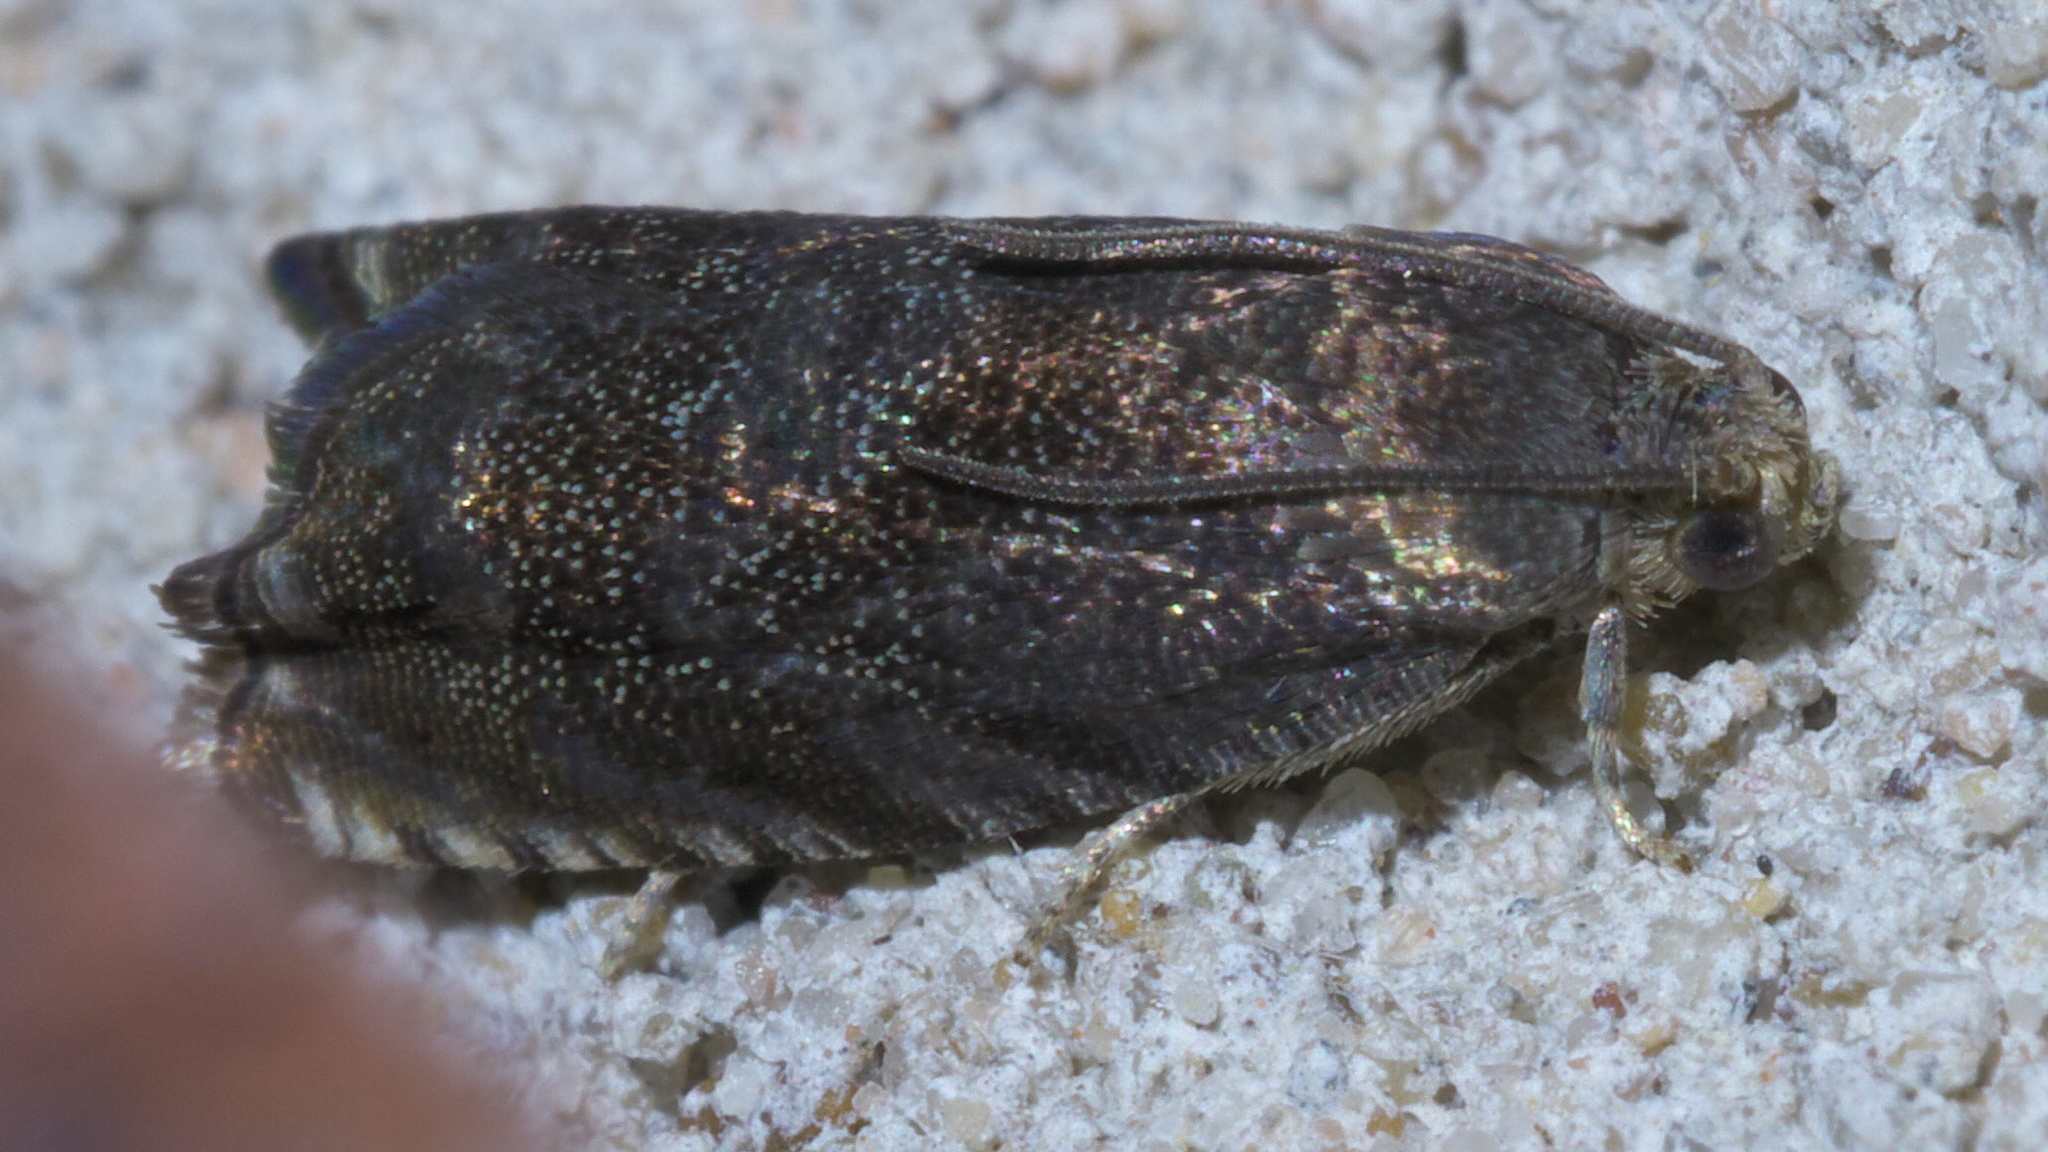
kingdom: Animalia
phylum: Arthropoda
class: Insecta
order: Lepidoptera
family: Tortricidae
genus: Cydia
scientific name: Cydia caryana
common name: Hickory shuckworm moth
